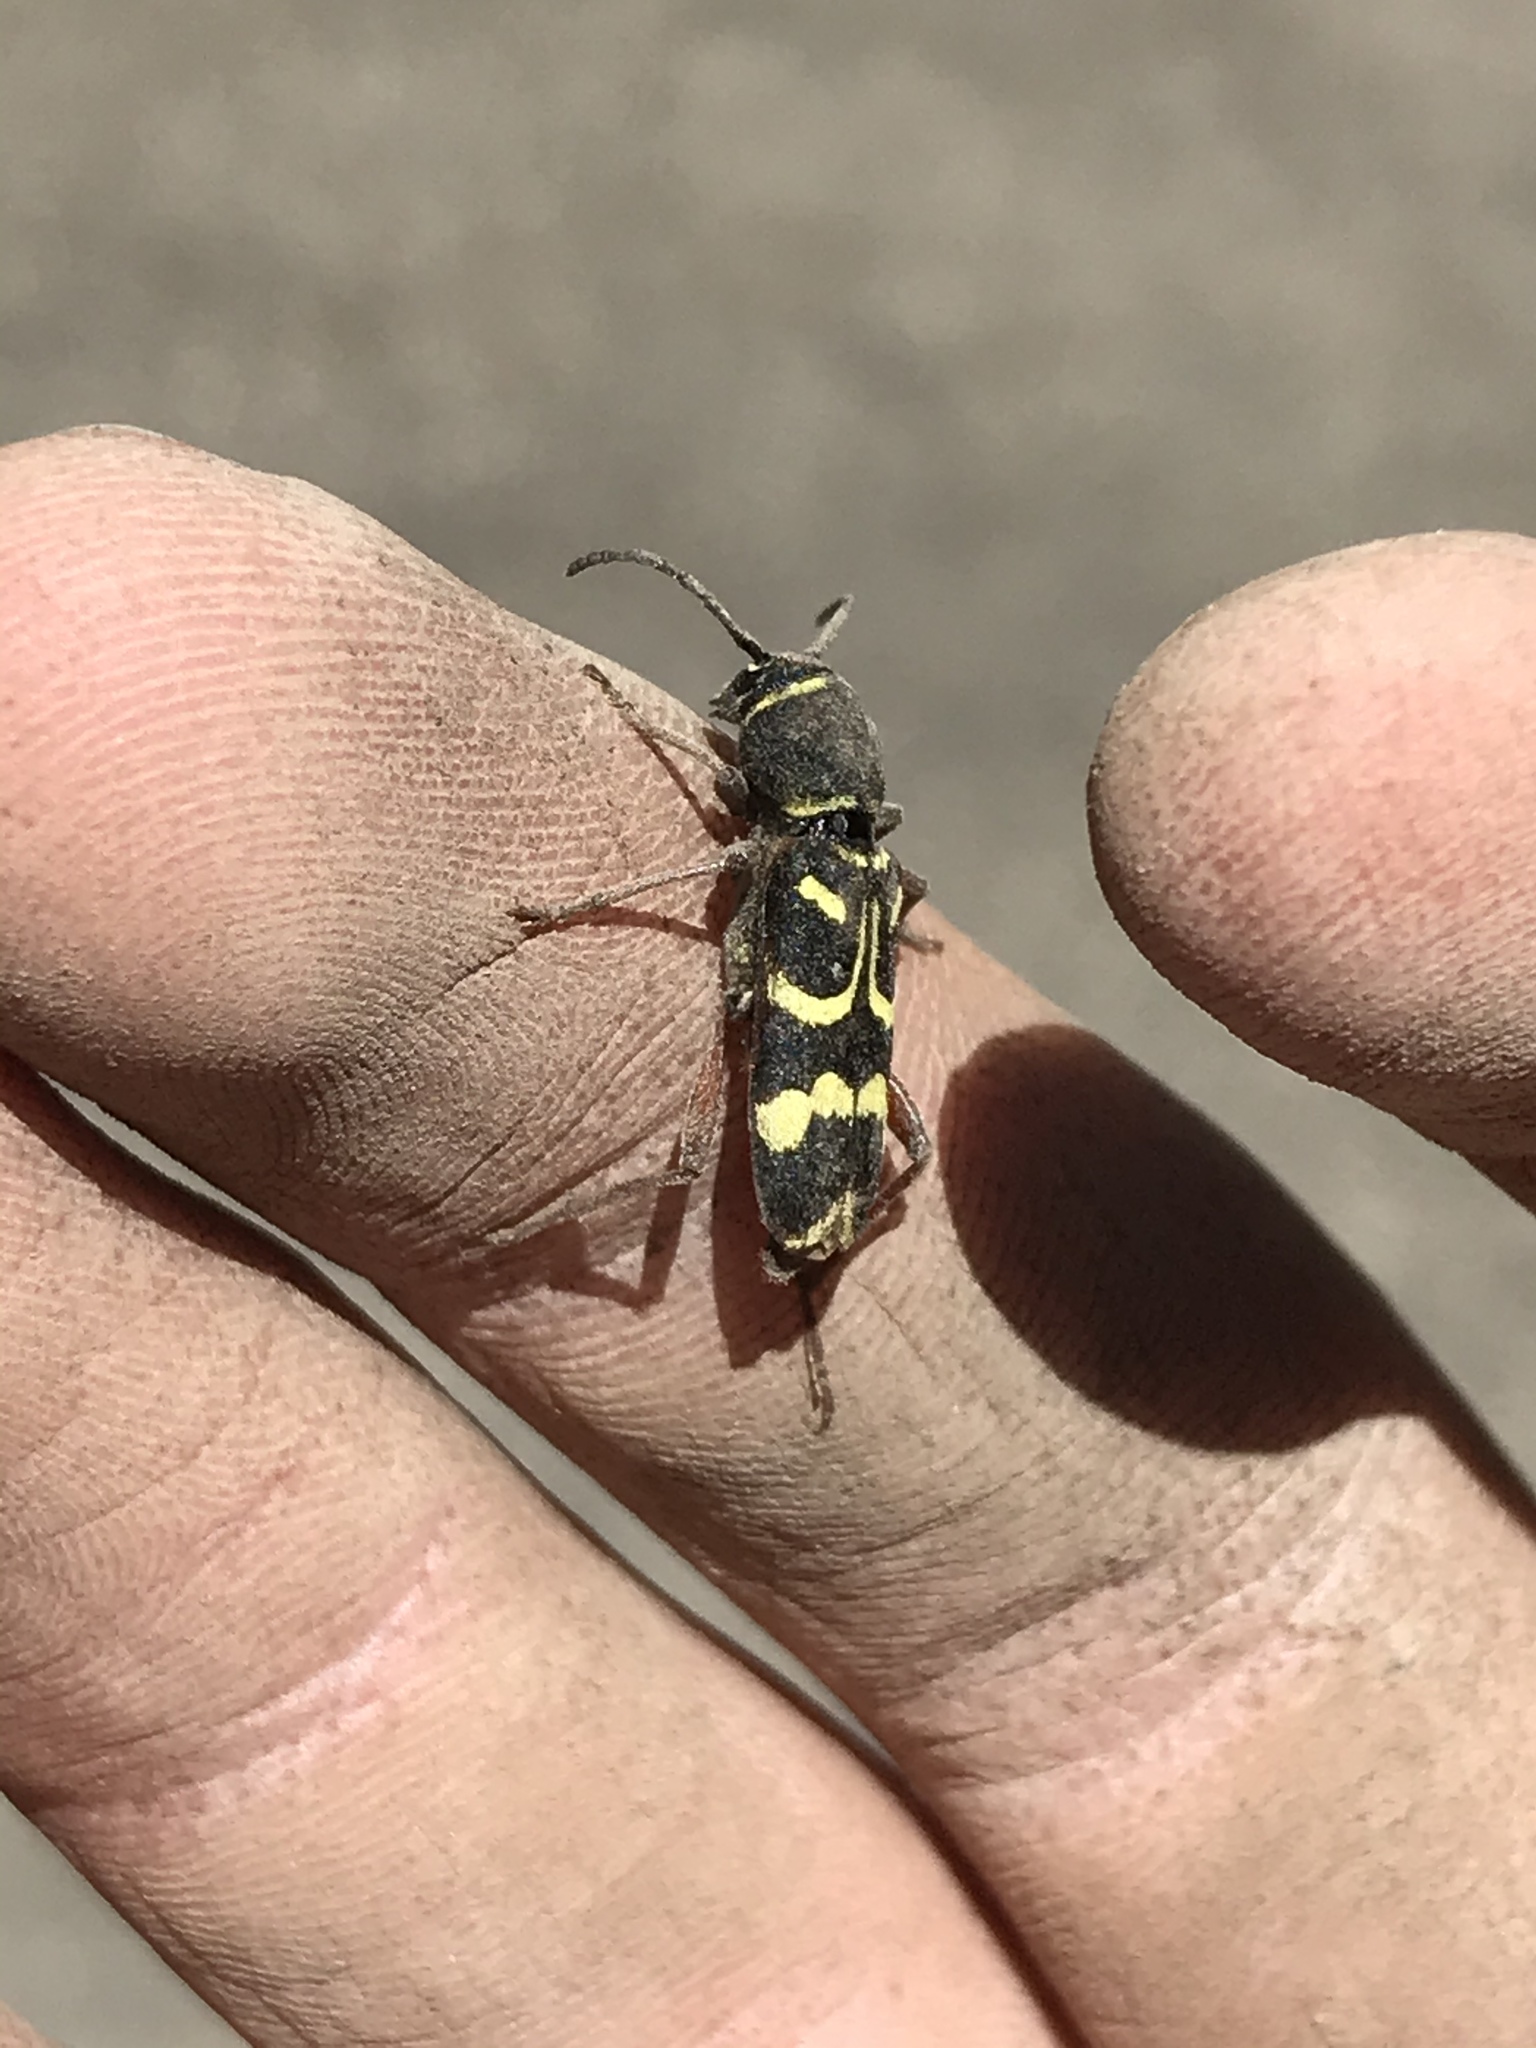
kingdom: Animalia
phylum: Arthropoda
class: Insecta
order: Coleoptera
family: Cerambycidae
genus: Xylotrechus
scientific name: Xylotrechus obliteratus
